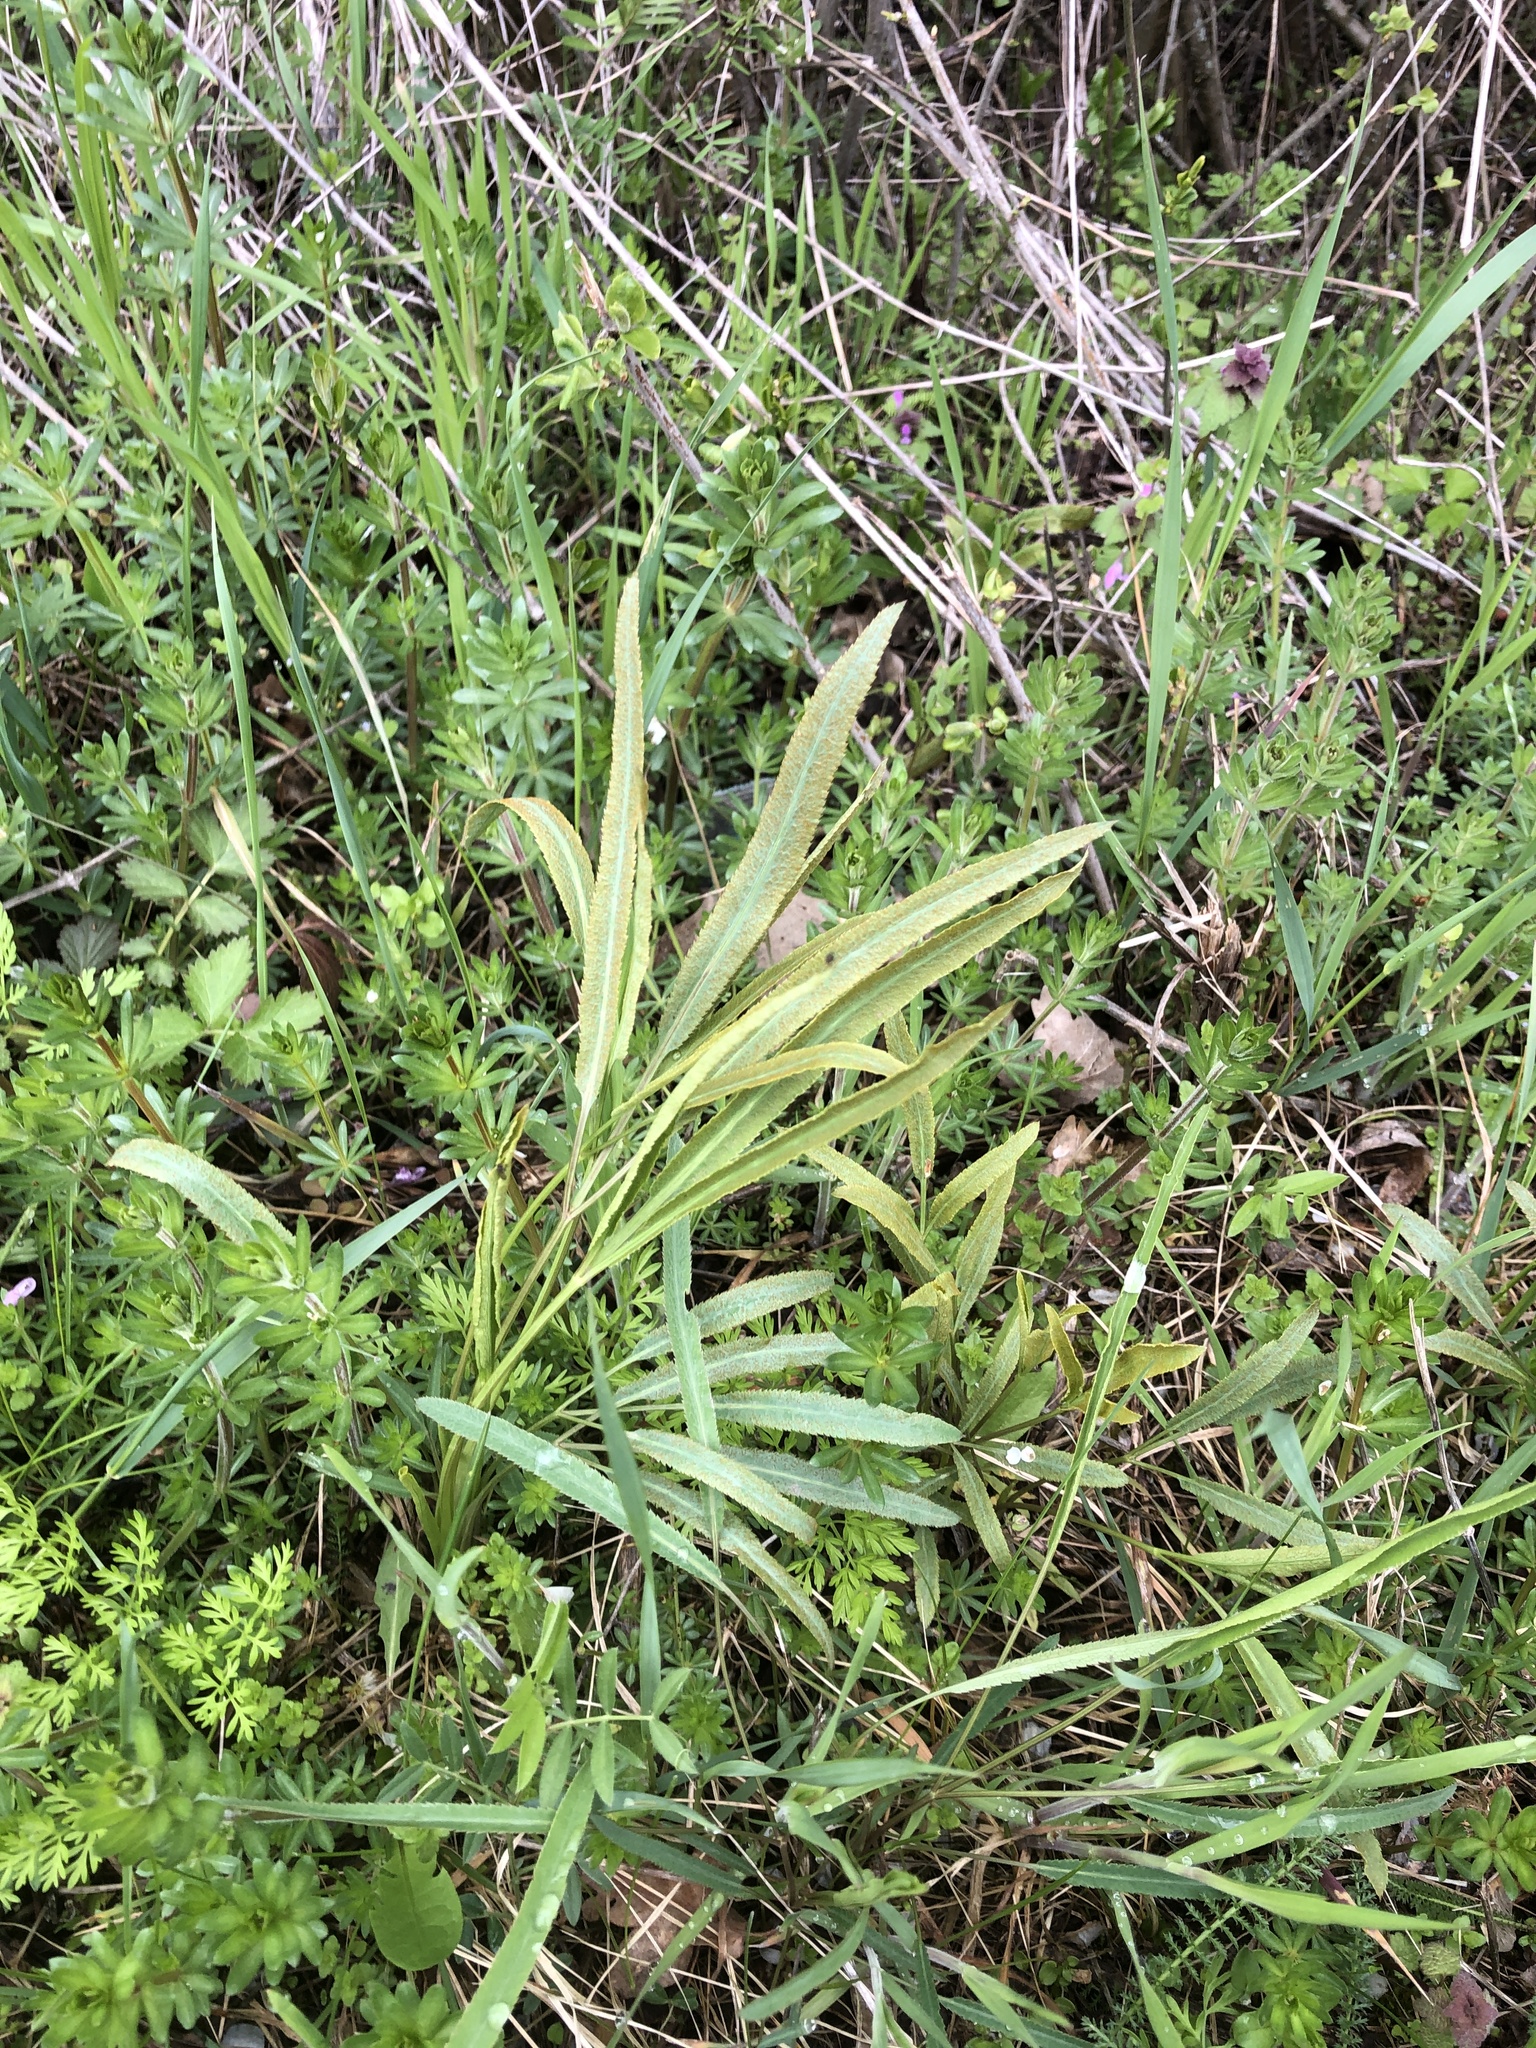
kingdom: Plantae
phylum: Tracheophyta
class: Magnoliopsida
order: Apiales
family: Apiaceae
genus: Falcaria
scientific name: Falcaria vulgaris
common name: Longleaf
